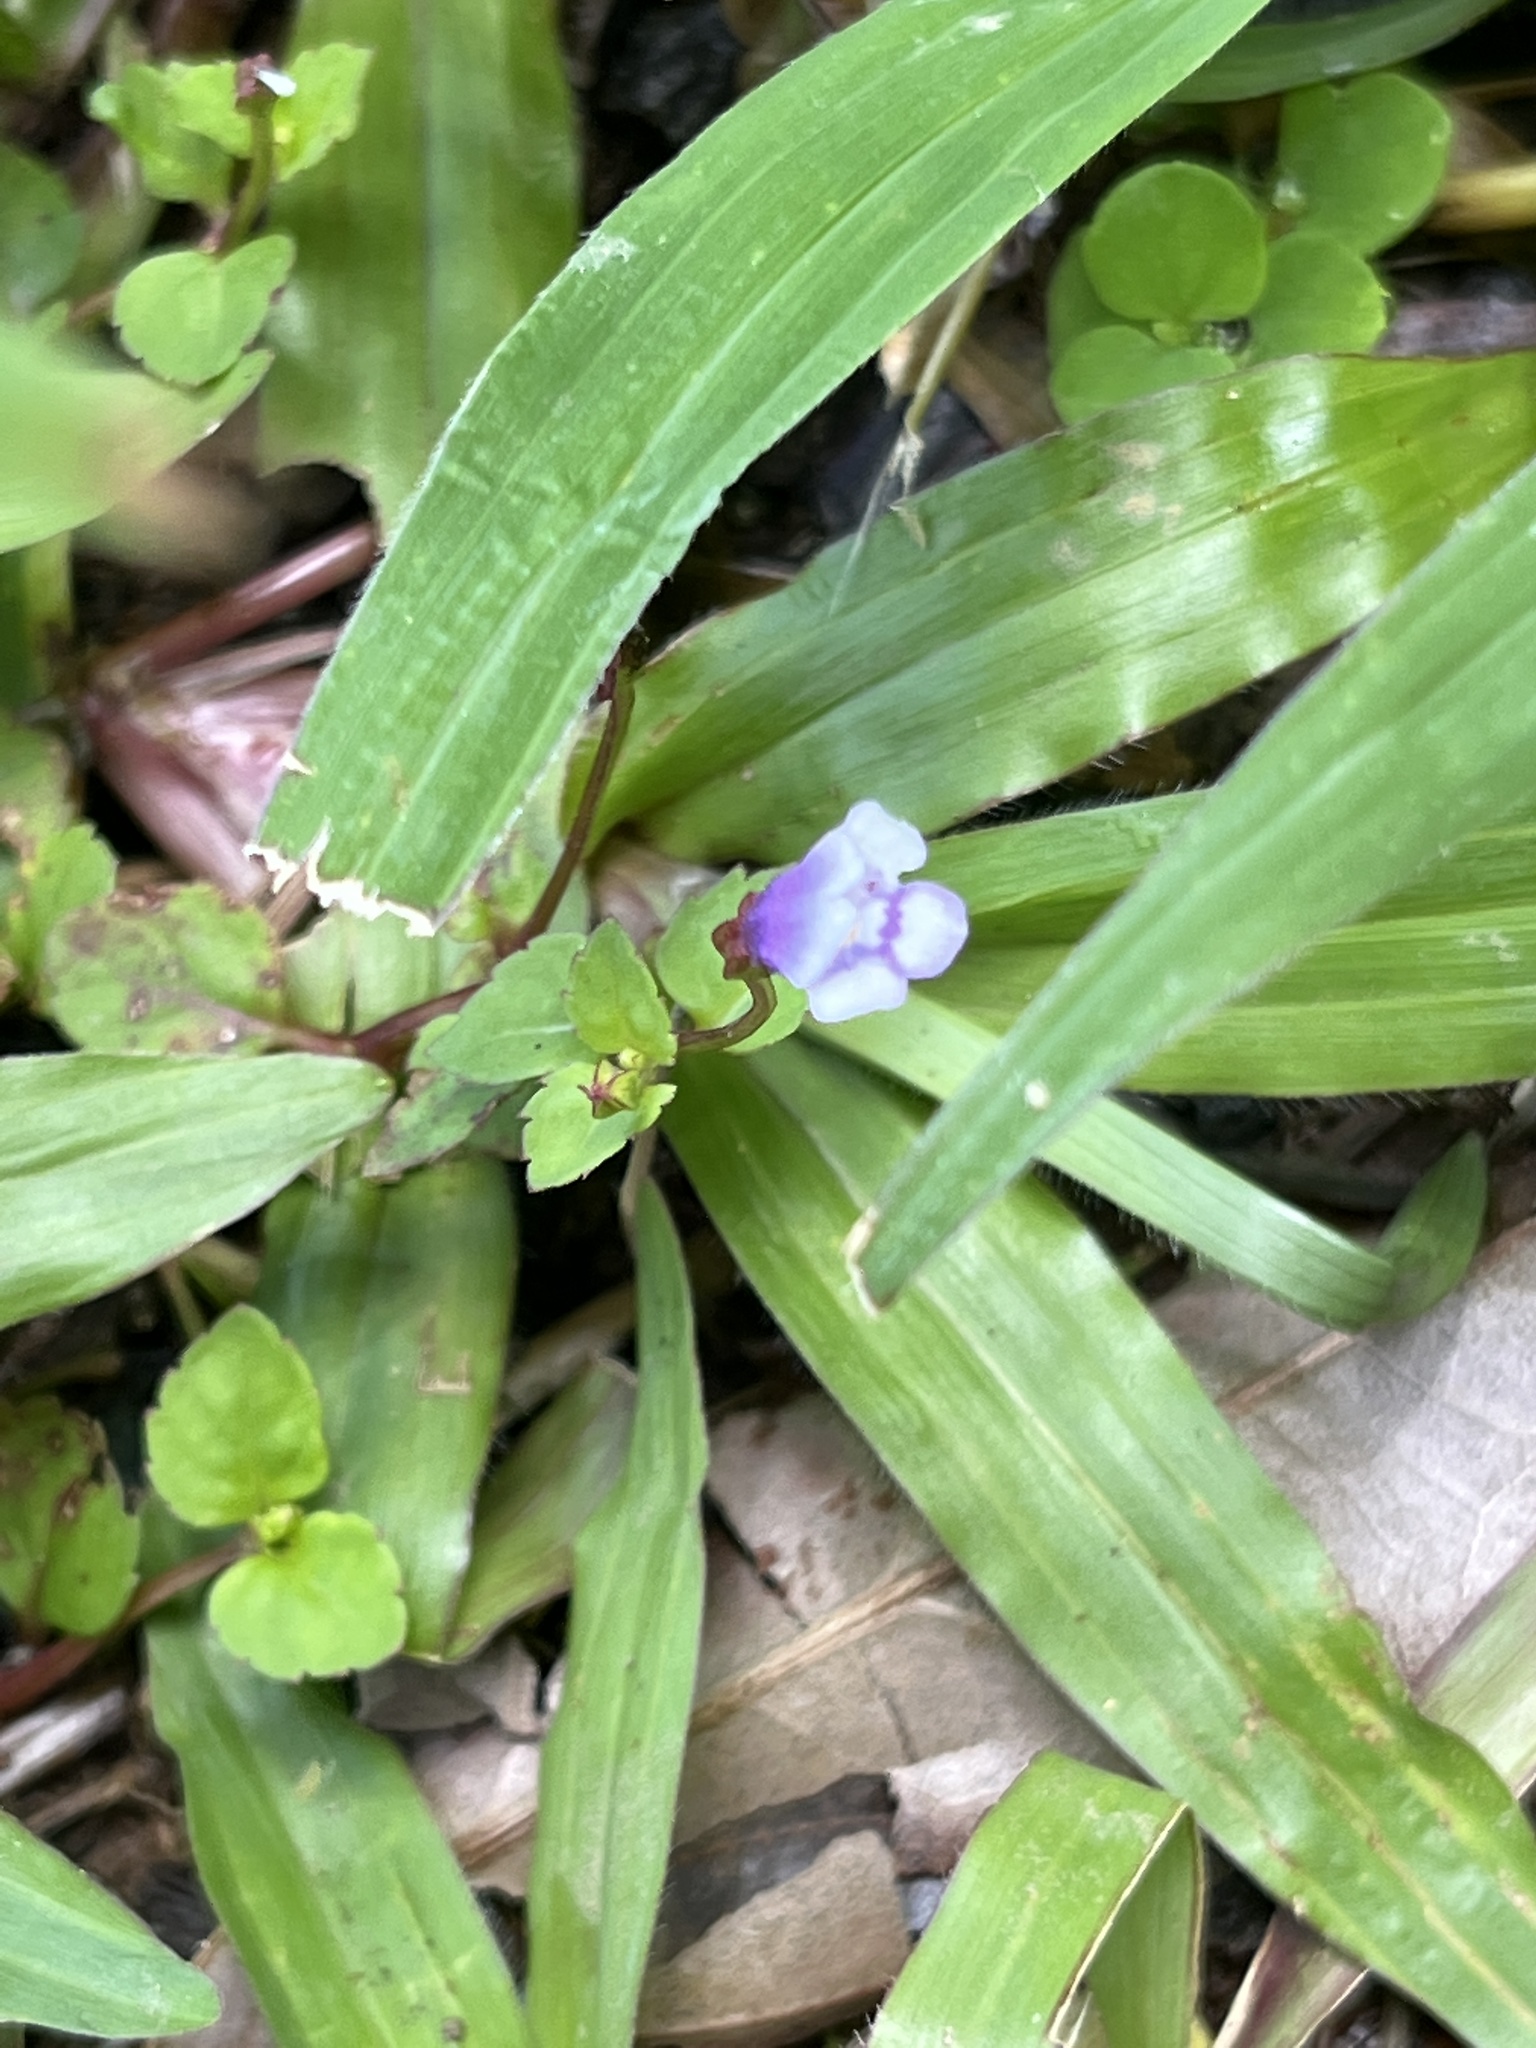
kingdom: Plantae
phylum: Tracheophyta
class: Magnoliopsida
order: Lamiales
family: Linderniaceae
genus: Torenia
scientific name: Torenia crustacea
